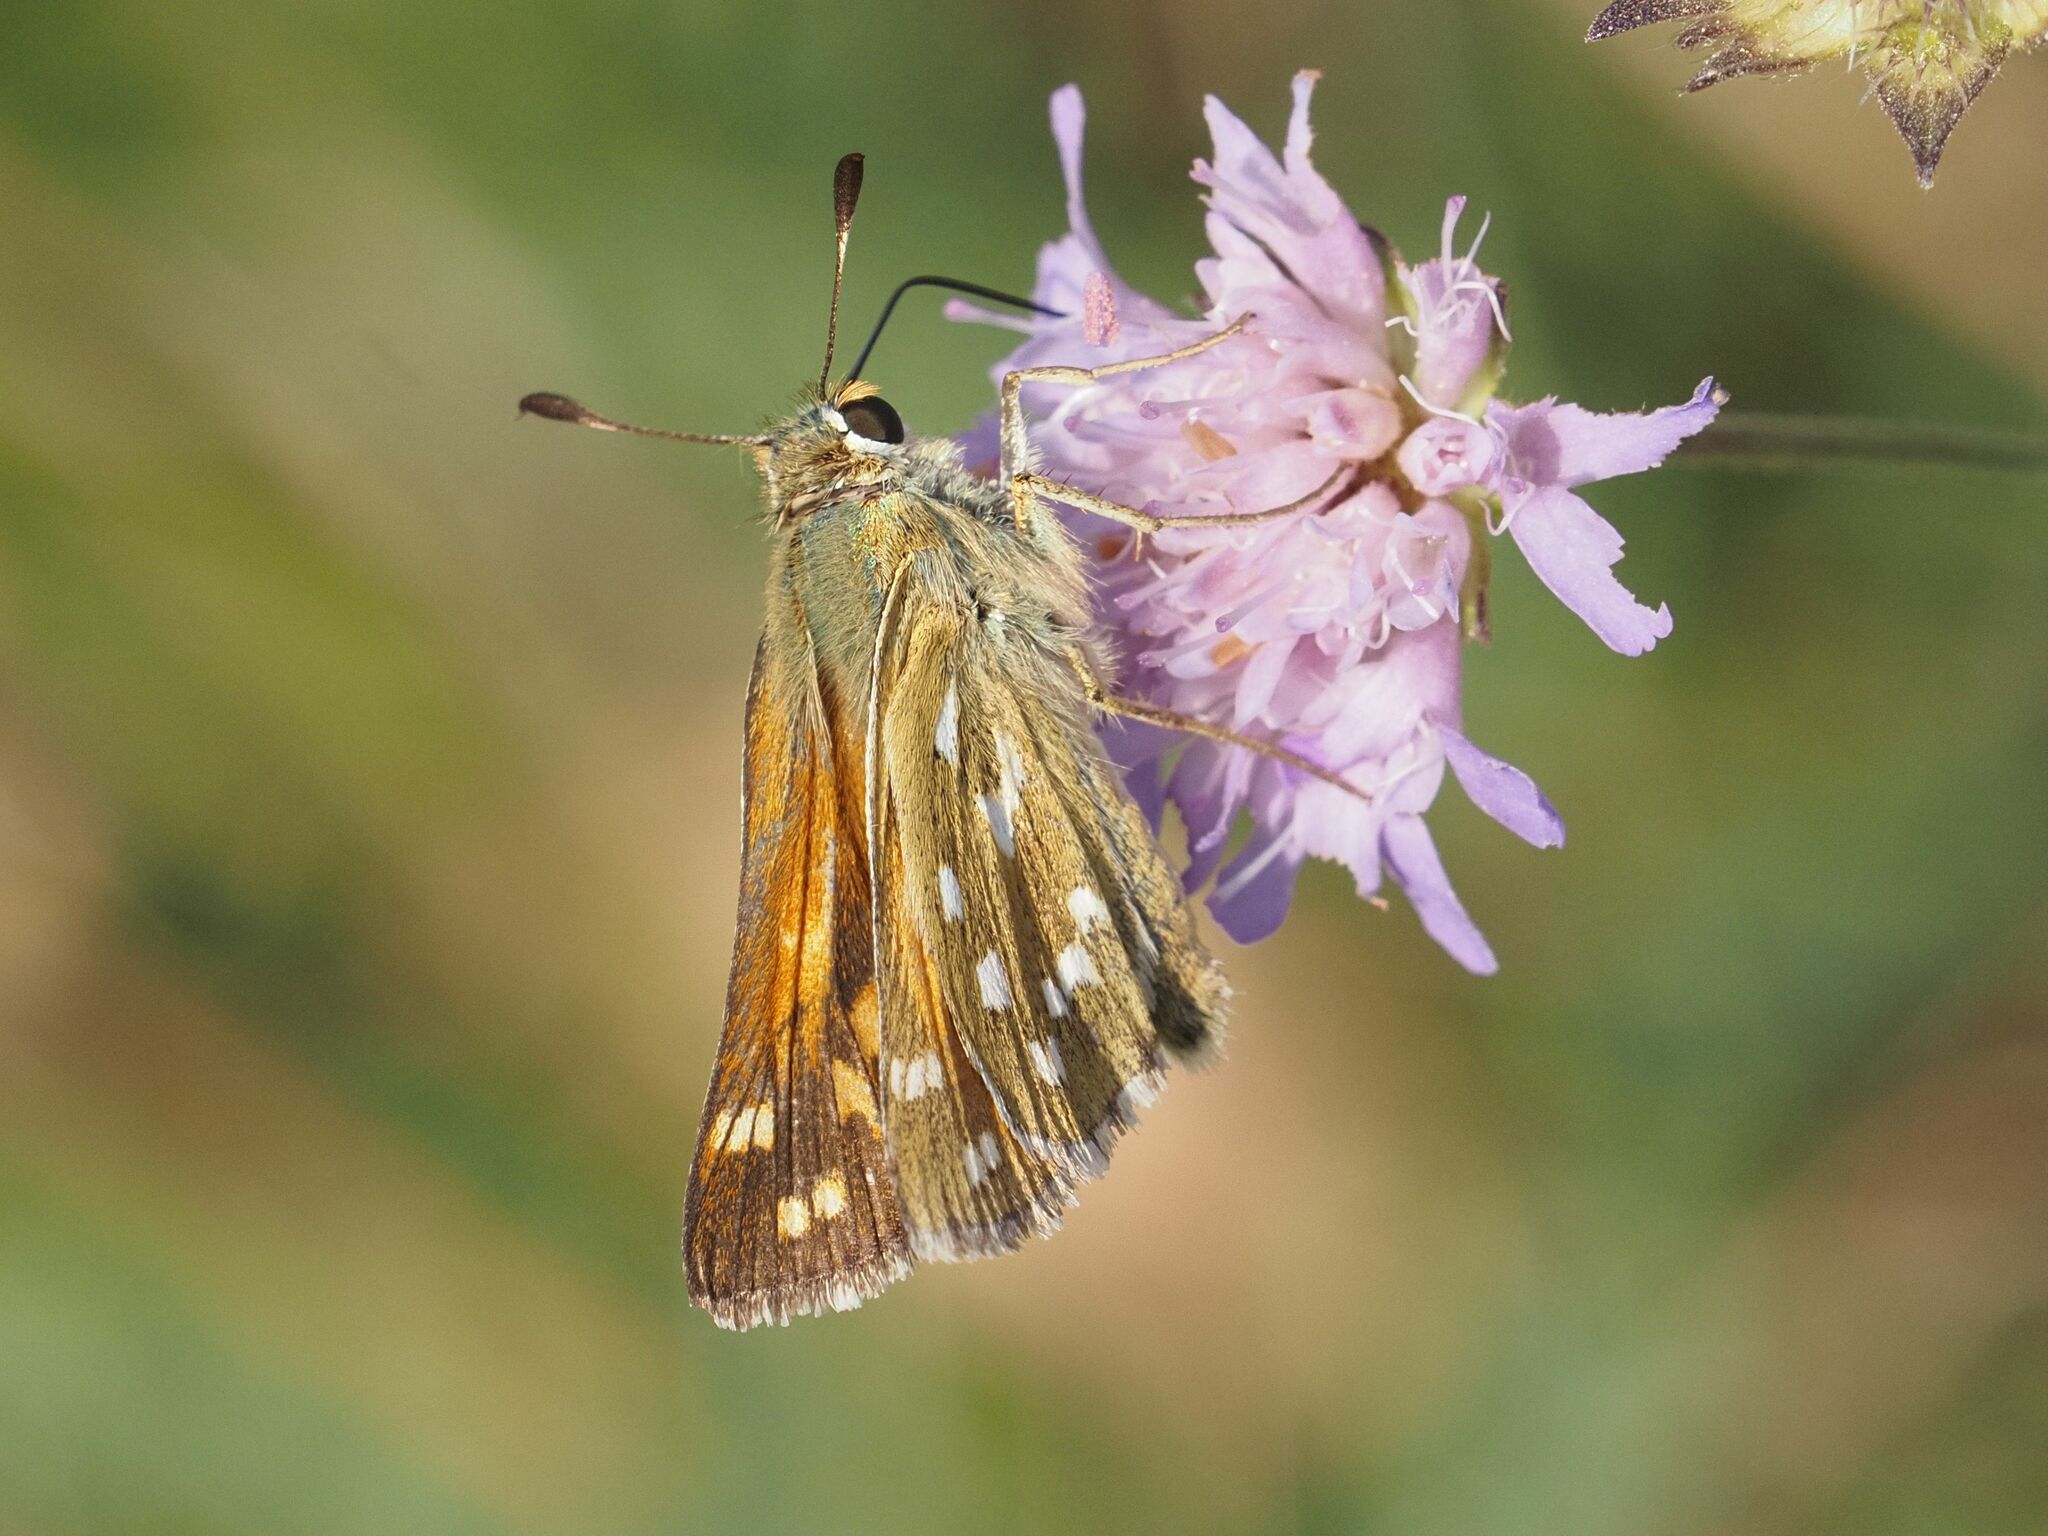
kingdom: Animalia
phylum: Arthropoda
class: Insecta
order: Lepidoptera
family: Hesperiidae
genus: Hesperia
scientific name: Hesperia comma
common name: Common branded skipper
